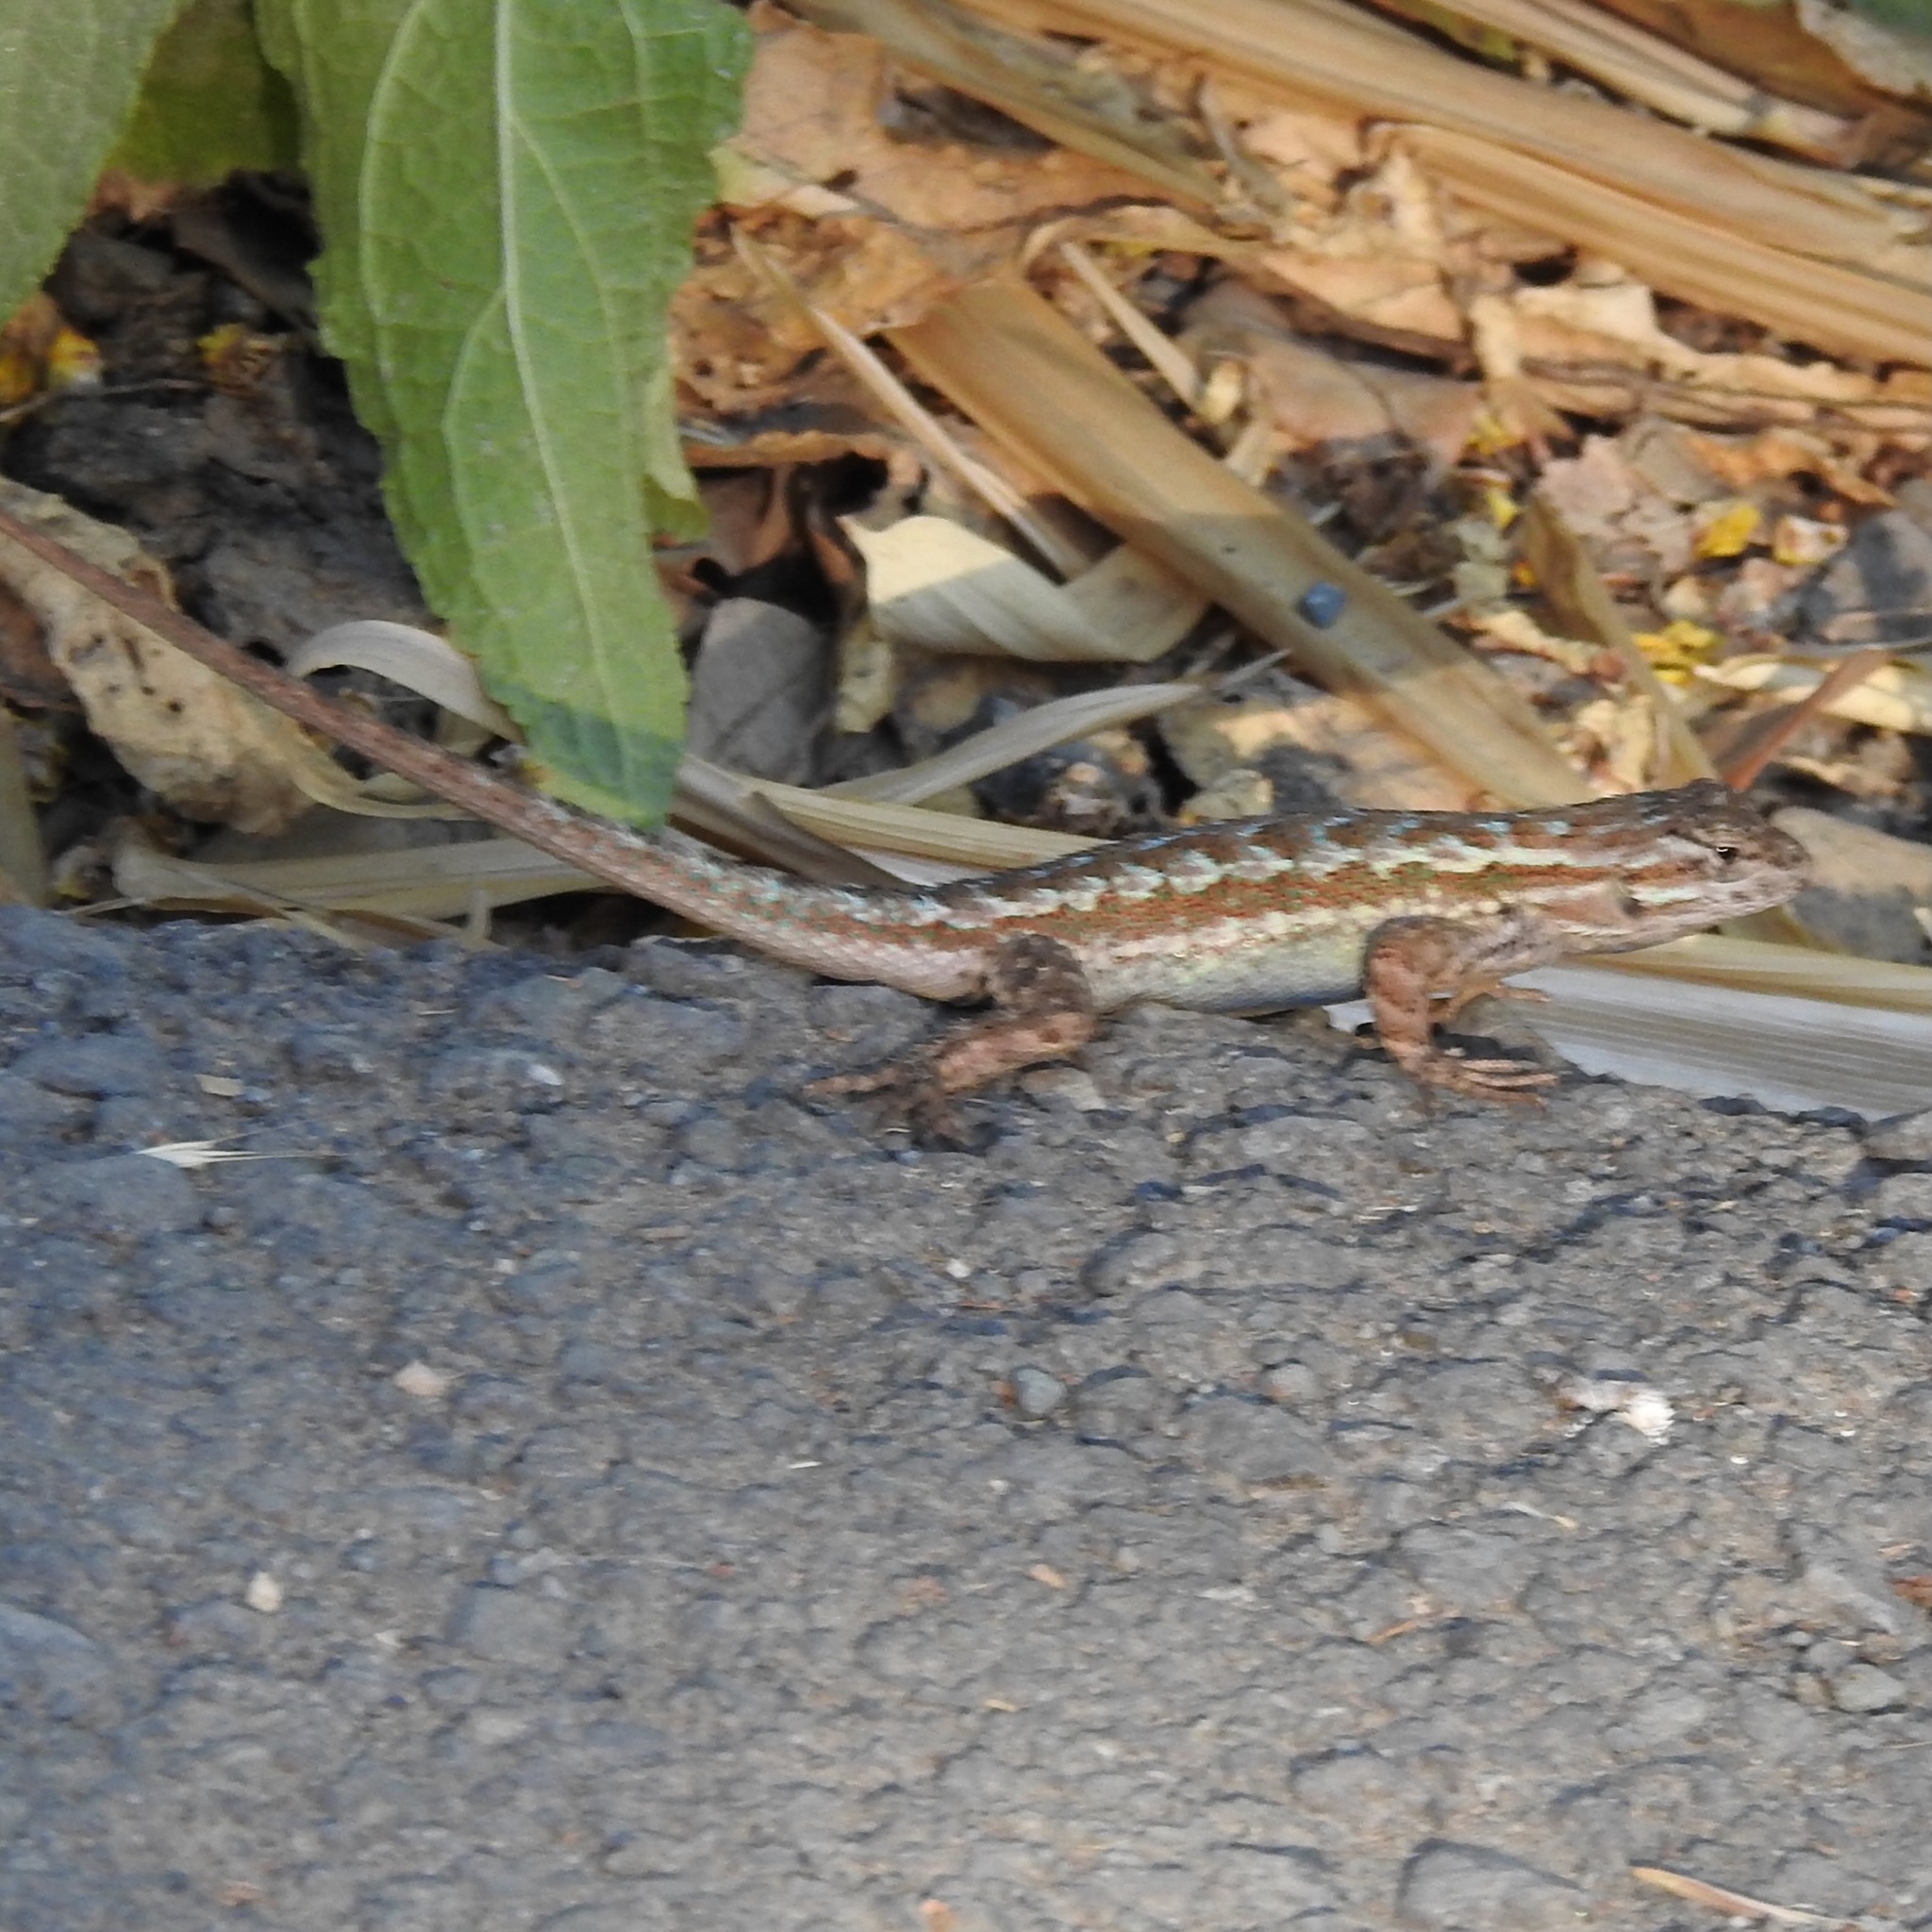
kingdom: Animalia
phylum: Chordata
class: Squamata
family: Phrynosomatidae
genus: Sceloporus
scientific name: Sceloporus occidentalis
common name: Western fence lizard
